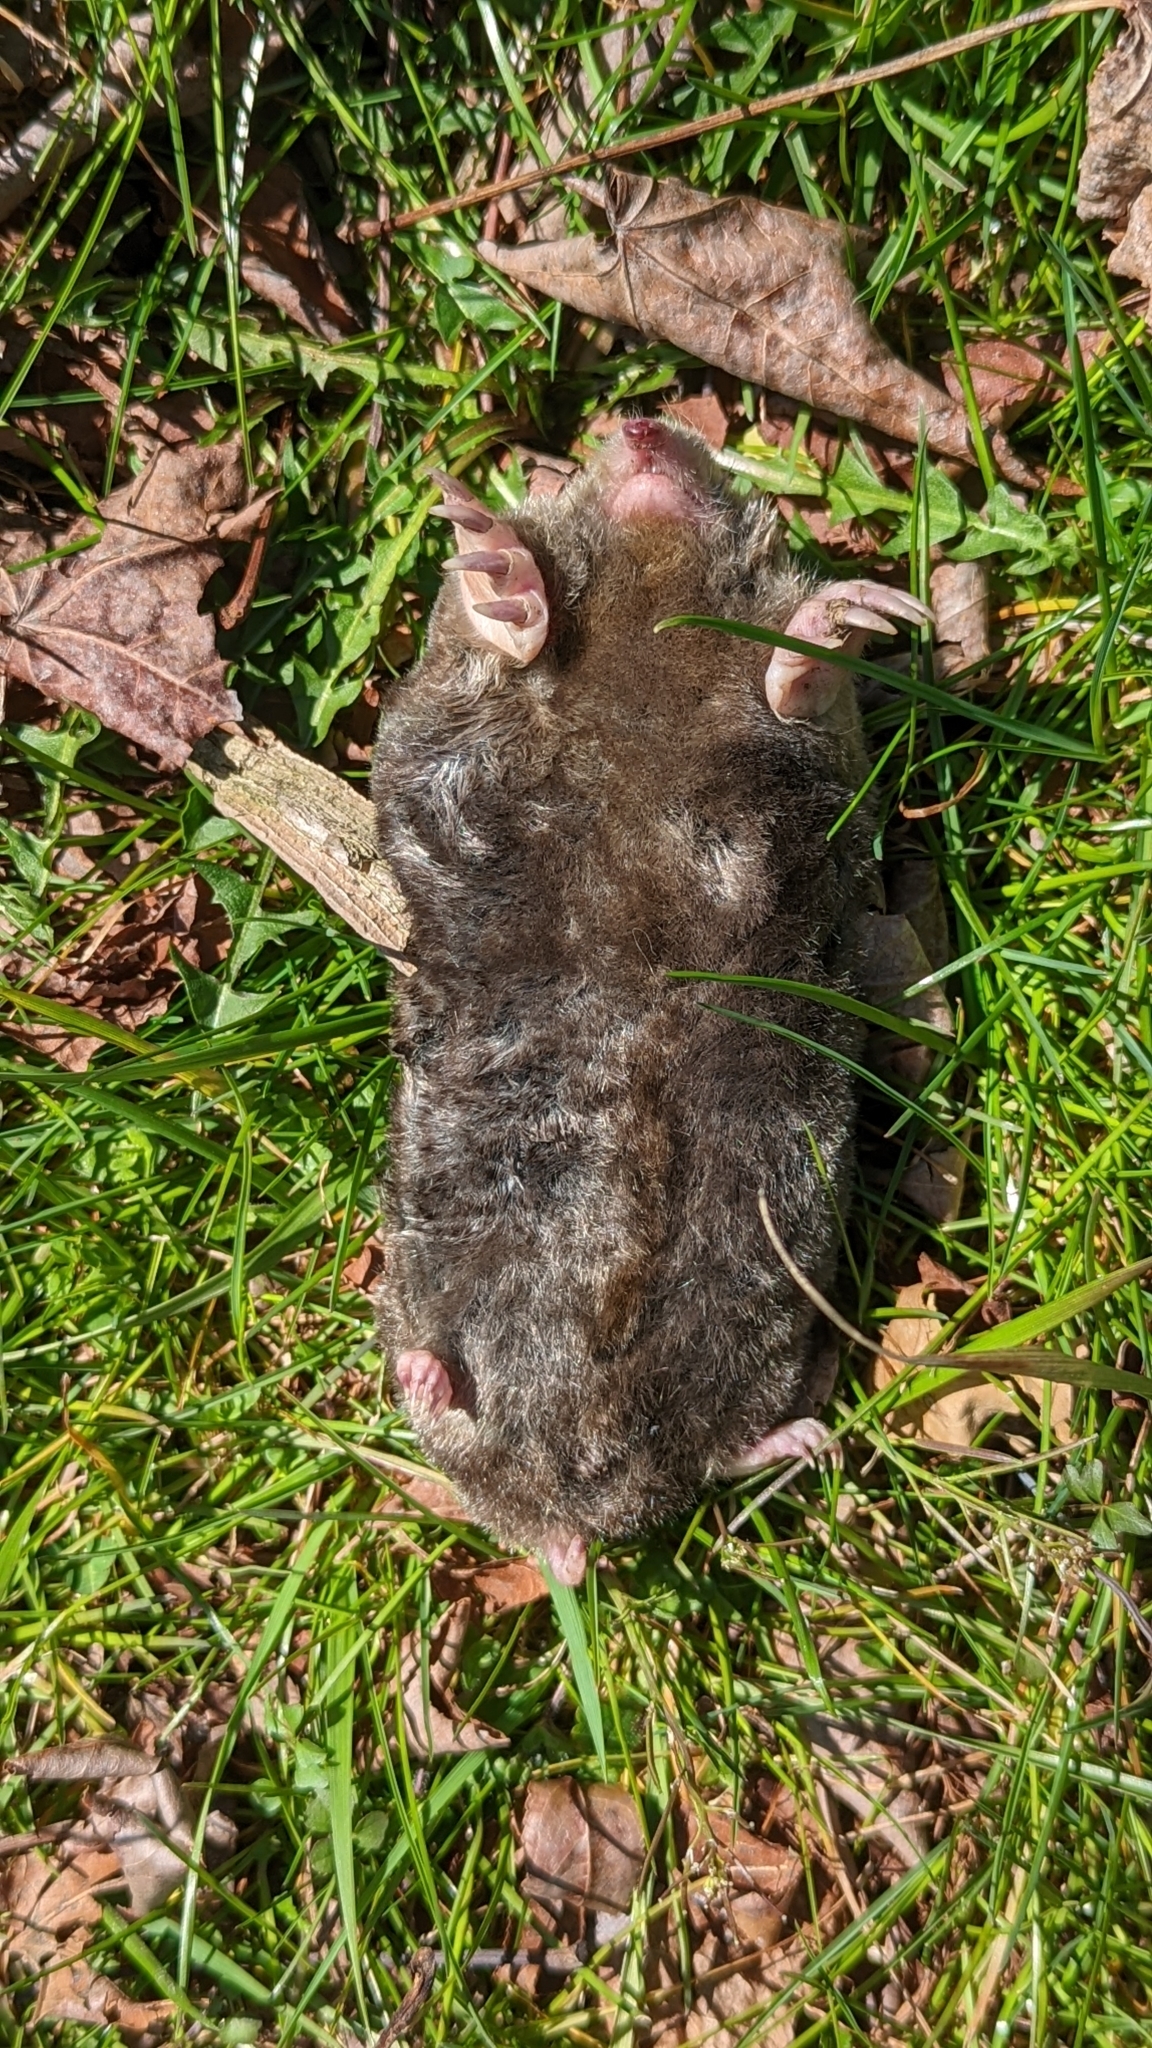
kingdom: Animalia
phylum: Chordata
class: Mammalia
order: Soricomorpha
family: Talpidae
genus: Scalopus
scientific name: Scalopus aquaticus
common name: Eastern mole
